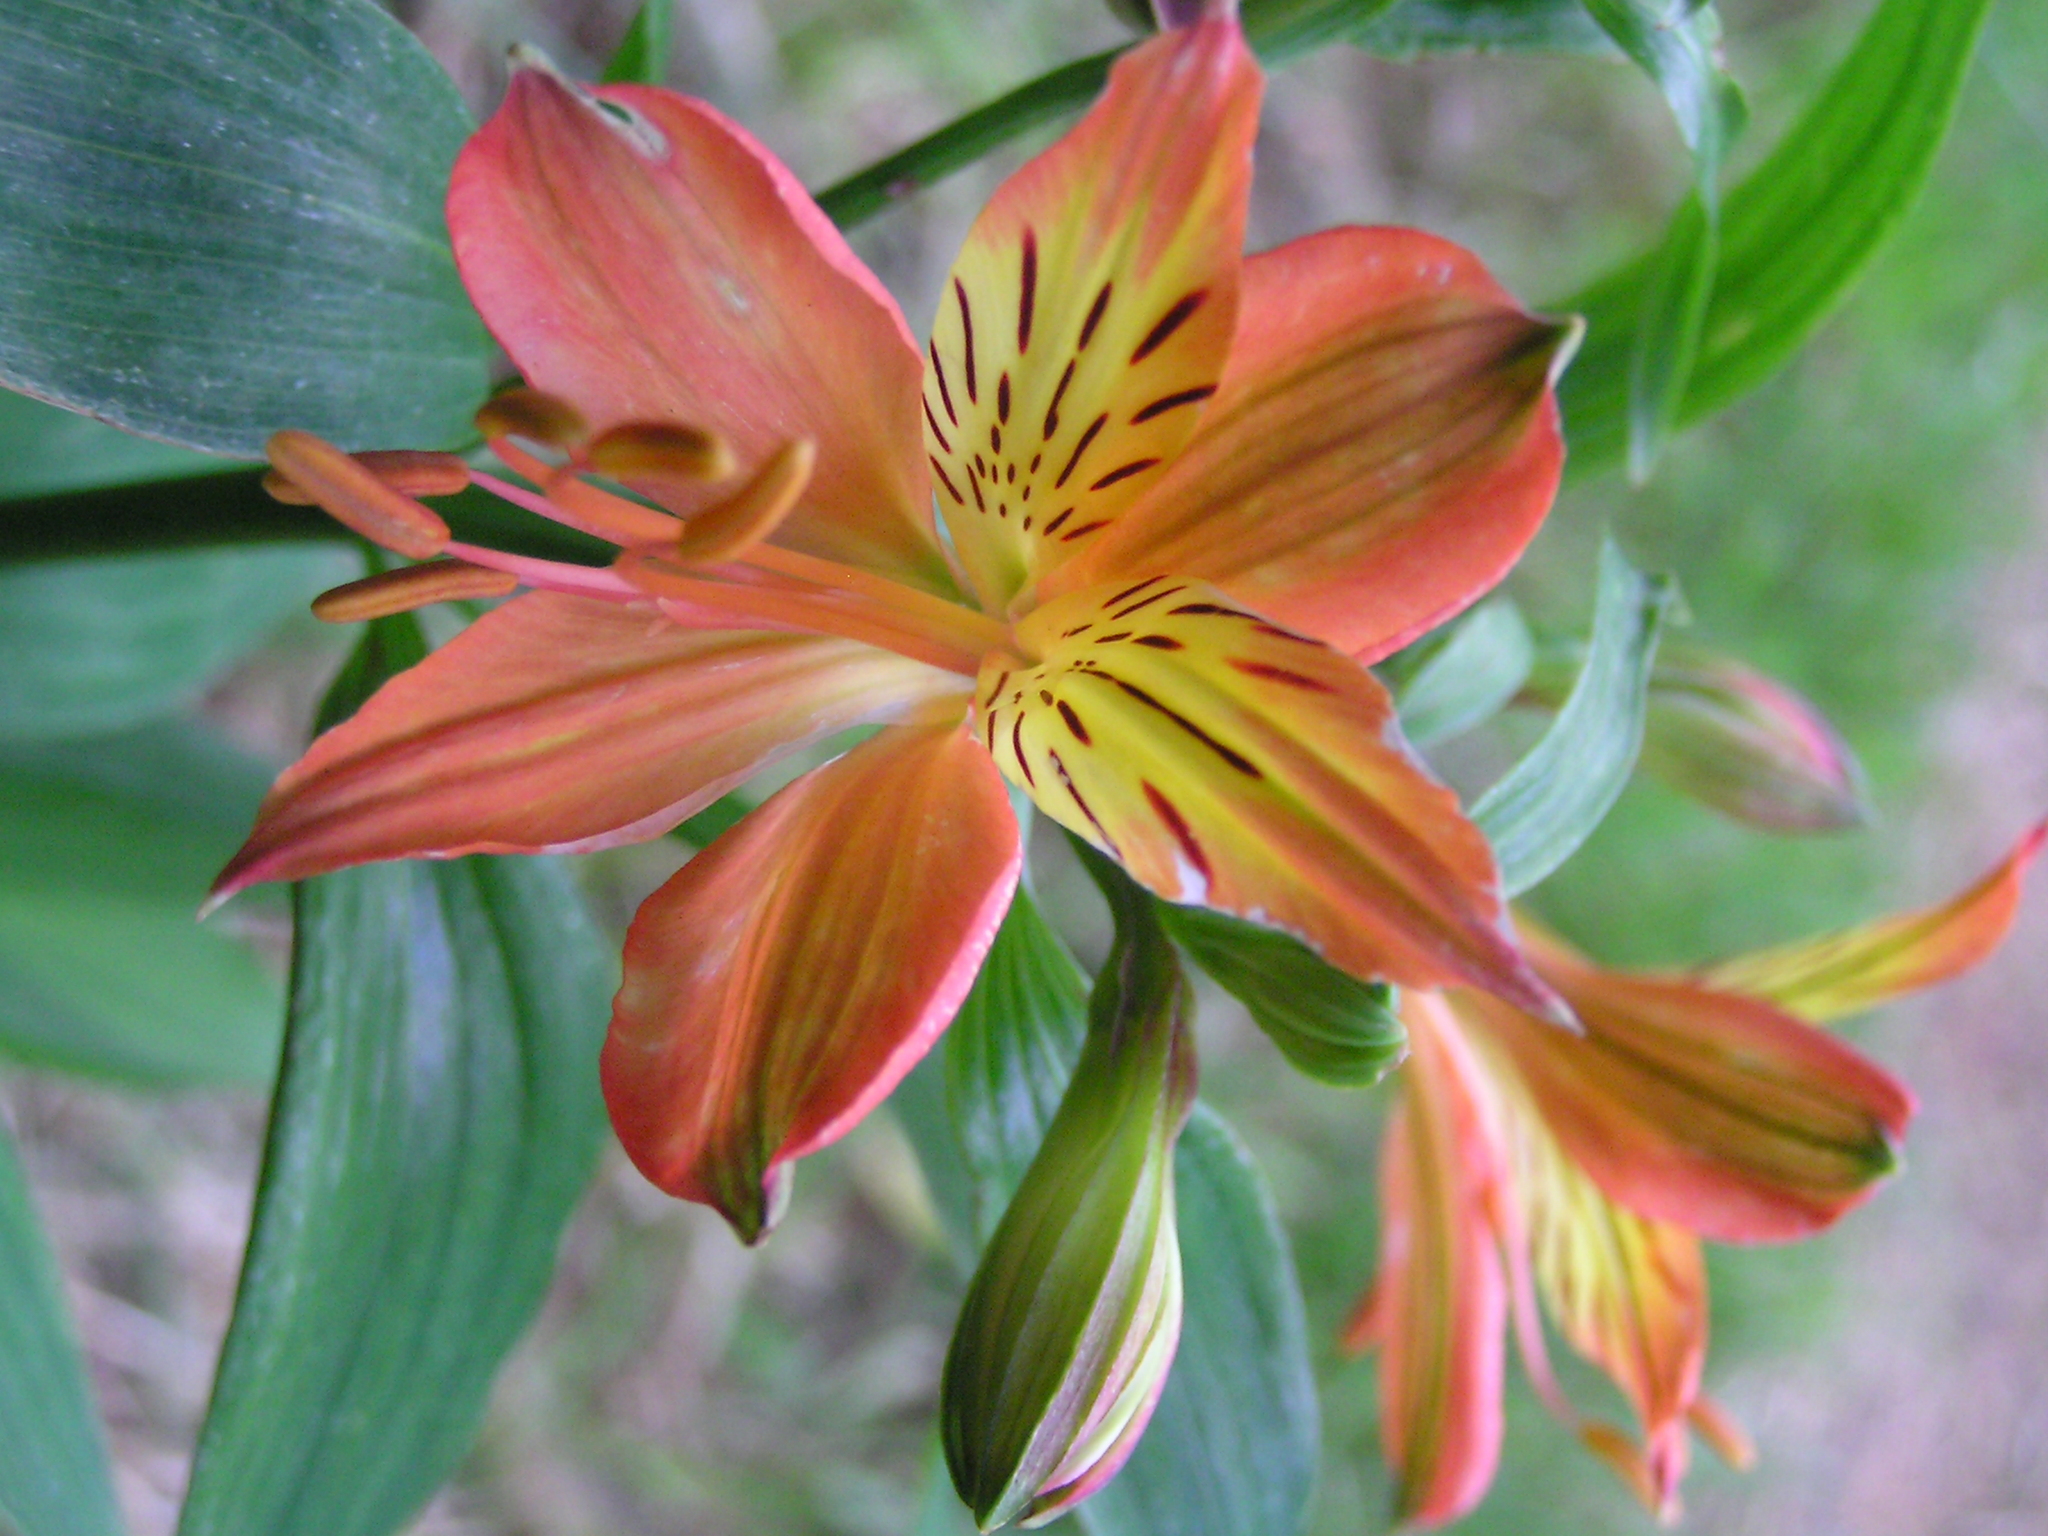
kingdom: Plantae
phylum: Tracheophyta
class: Liliopsida
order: Liliales
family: Alstroemeriaceae
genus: Alstroemeria
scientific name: Alstroemeria aurea
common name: Peruvian lily
